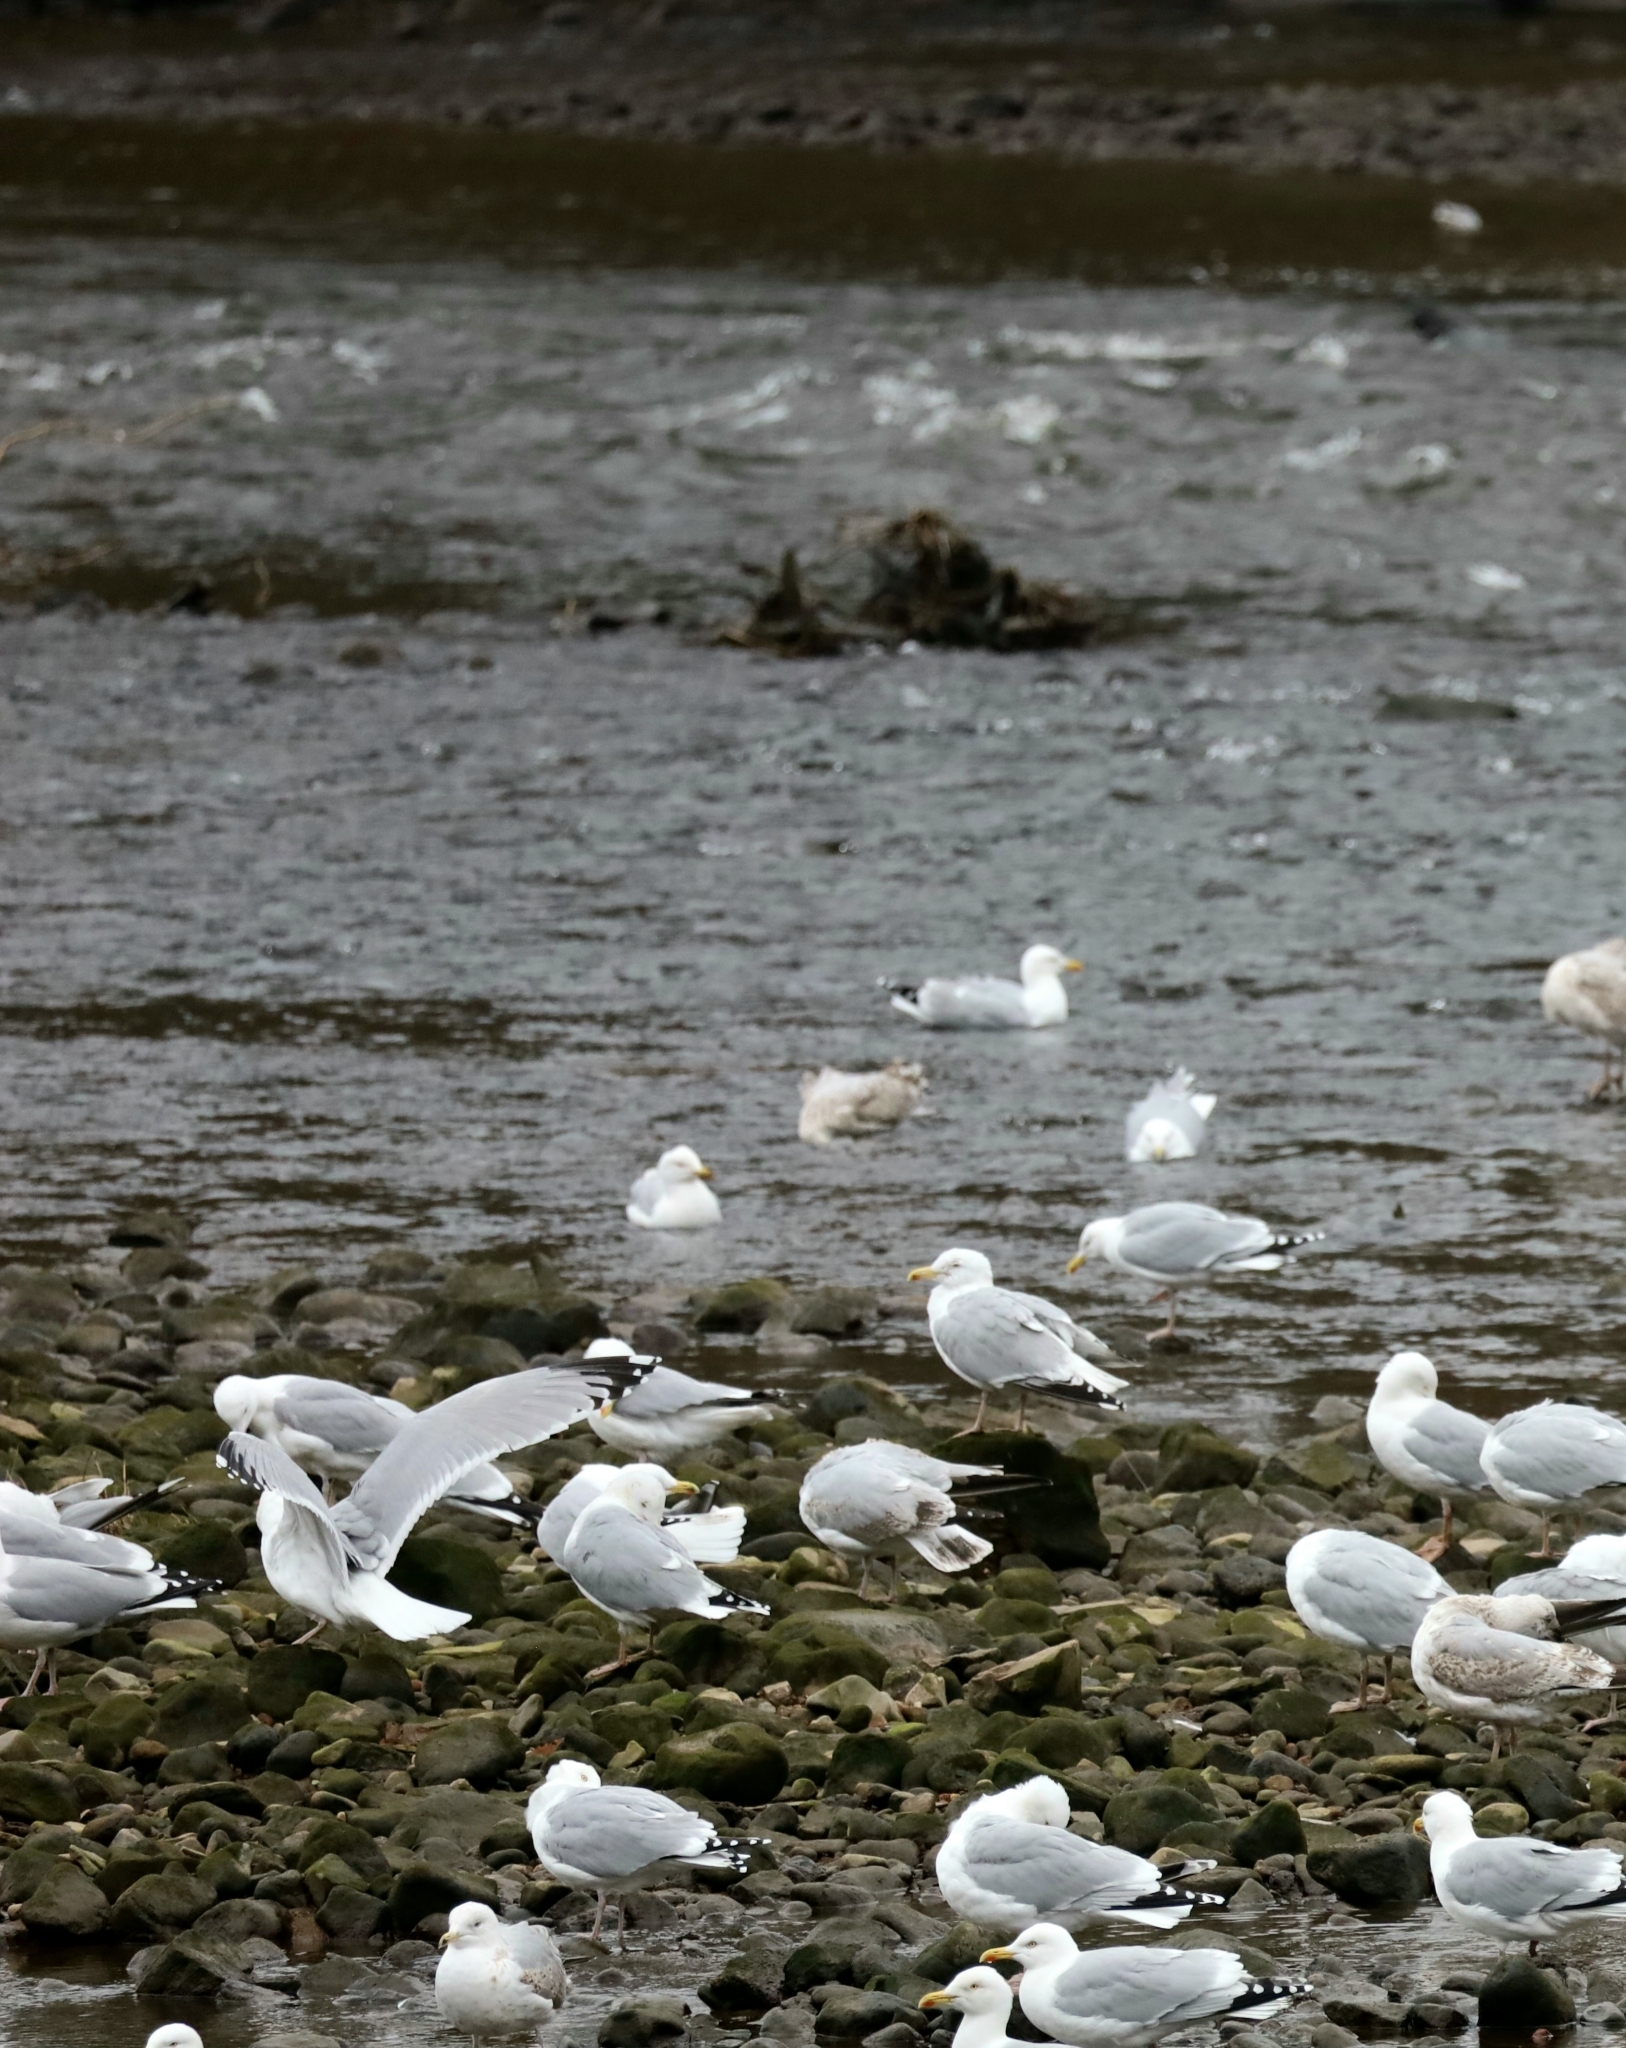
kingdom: Animalia
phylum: Chordata
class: Aves
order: Charadriiformes
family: Laridae
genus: Larus
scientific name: Larus argentatus
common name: Herring gull
